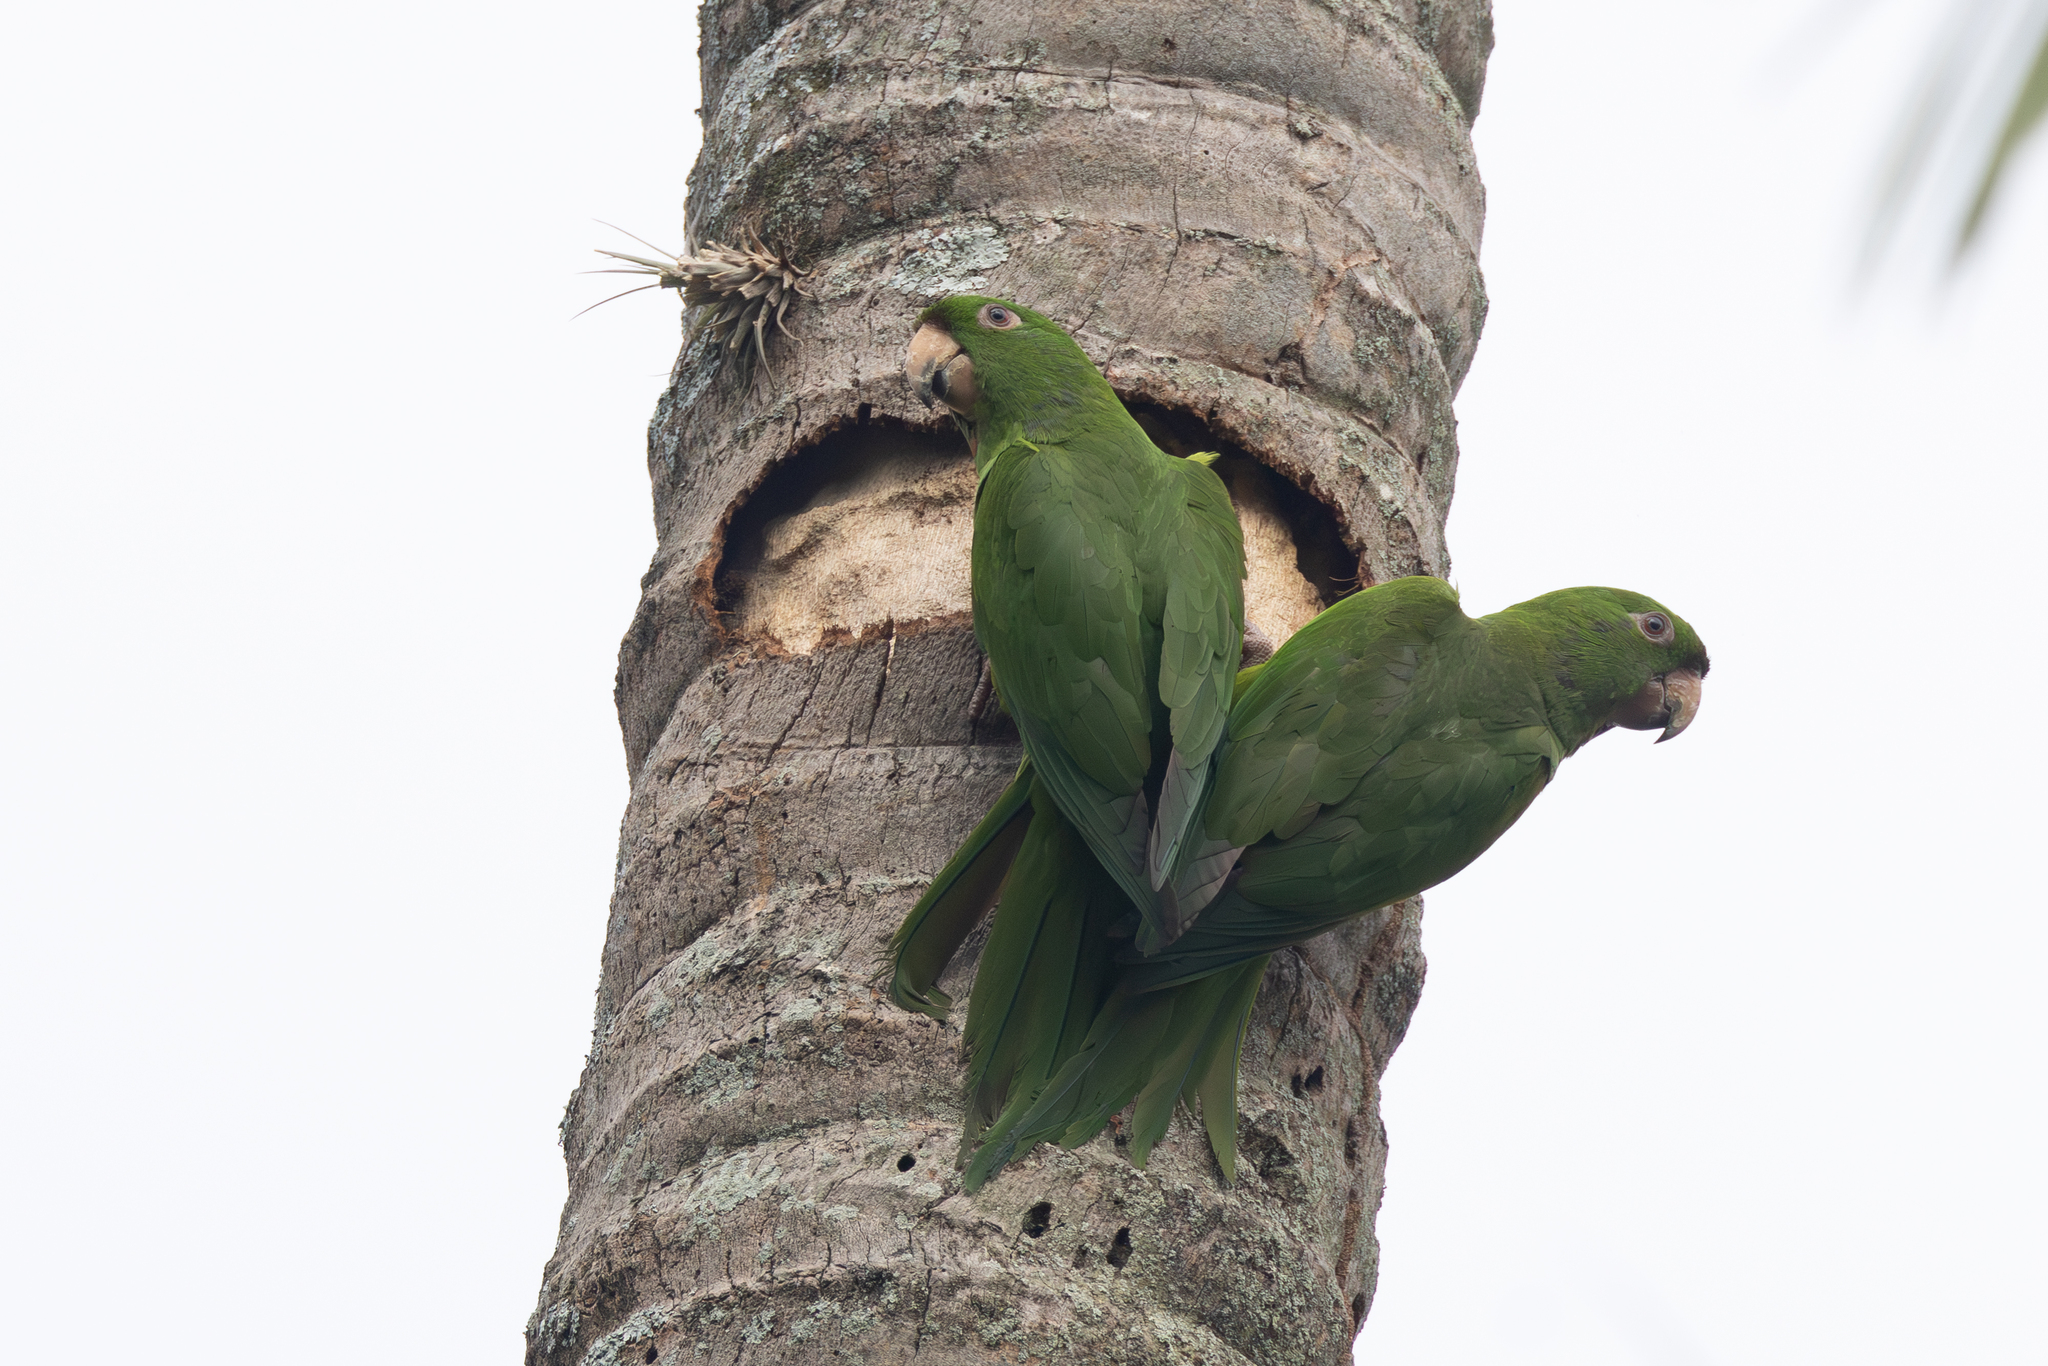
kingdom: Animalia
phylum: Chordata
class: Aves
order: Psittaciformes
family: Psittacidae
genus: Aratinga
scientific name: Aratinga strenua
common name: Pacific parakeet
